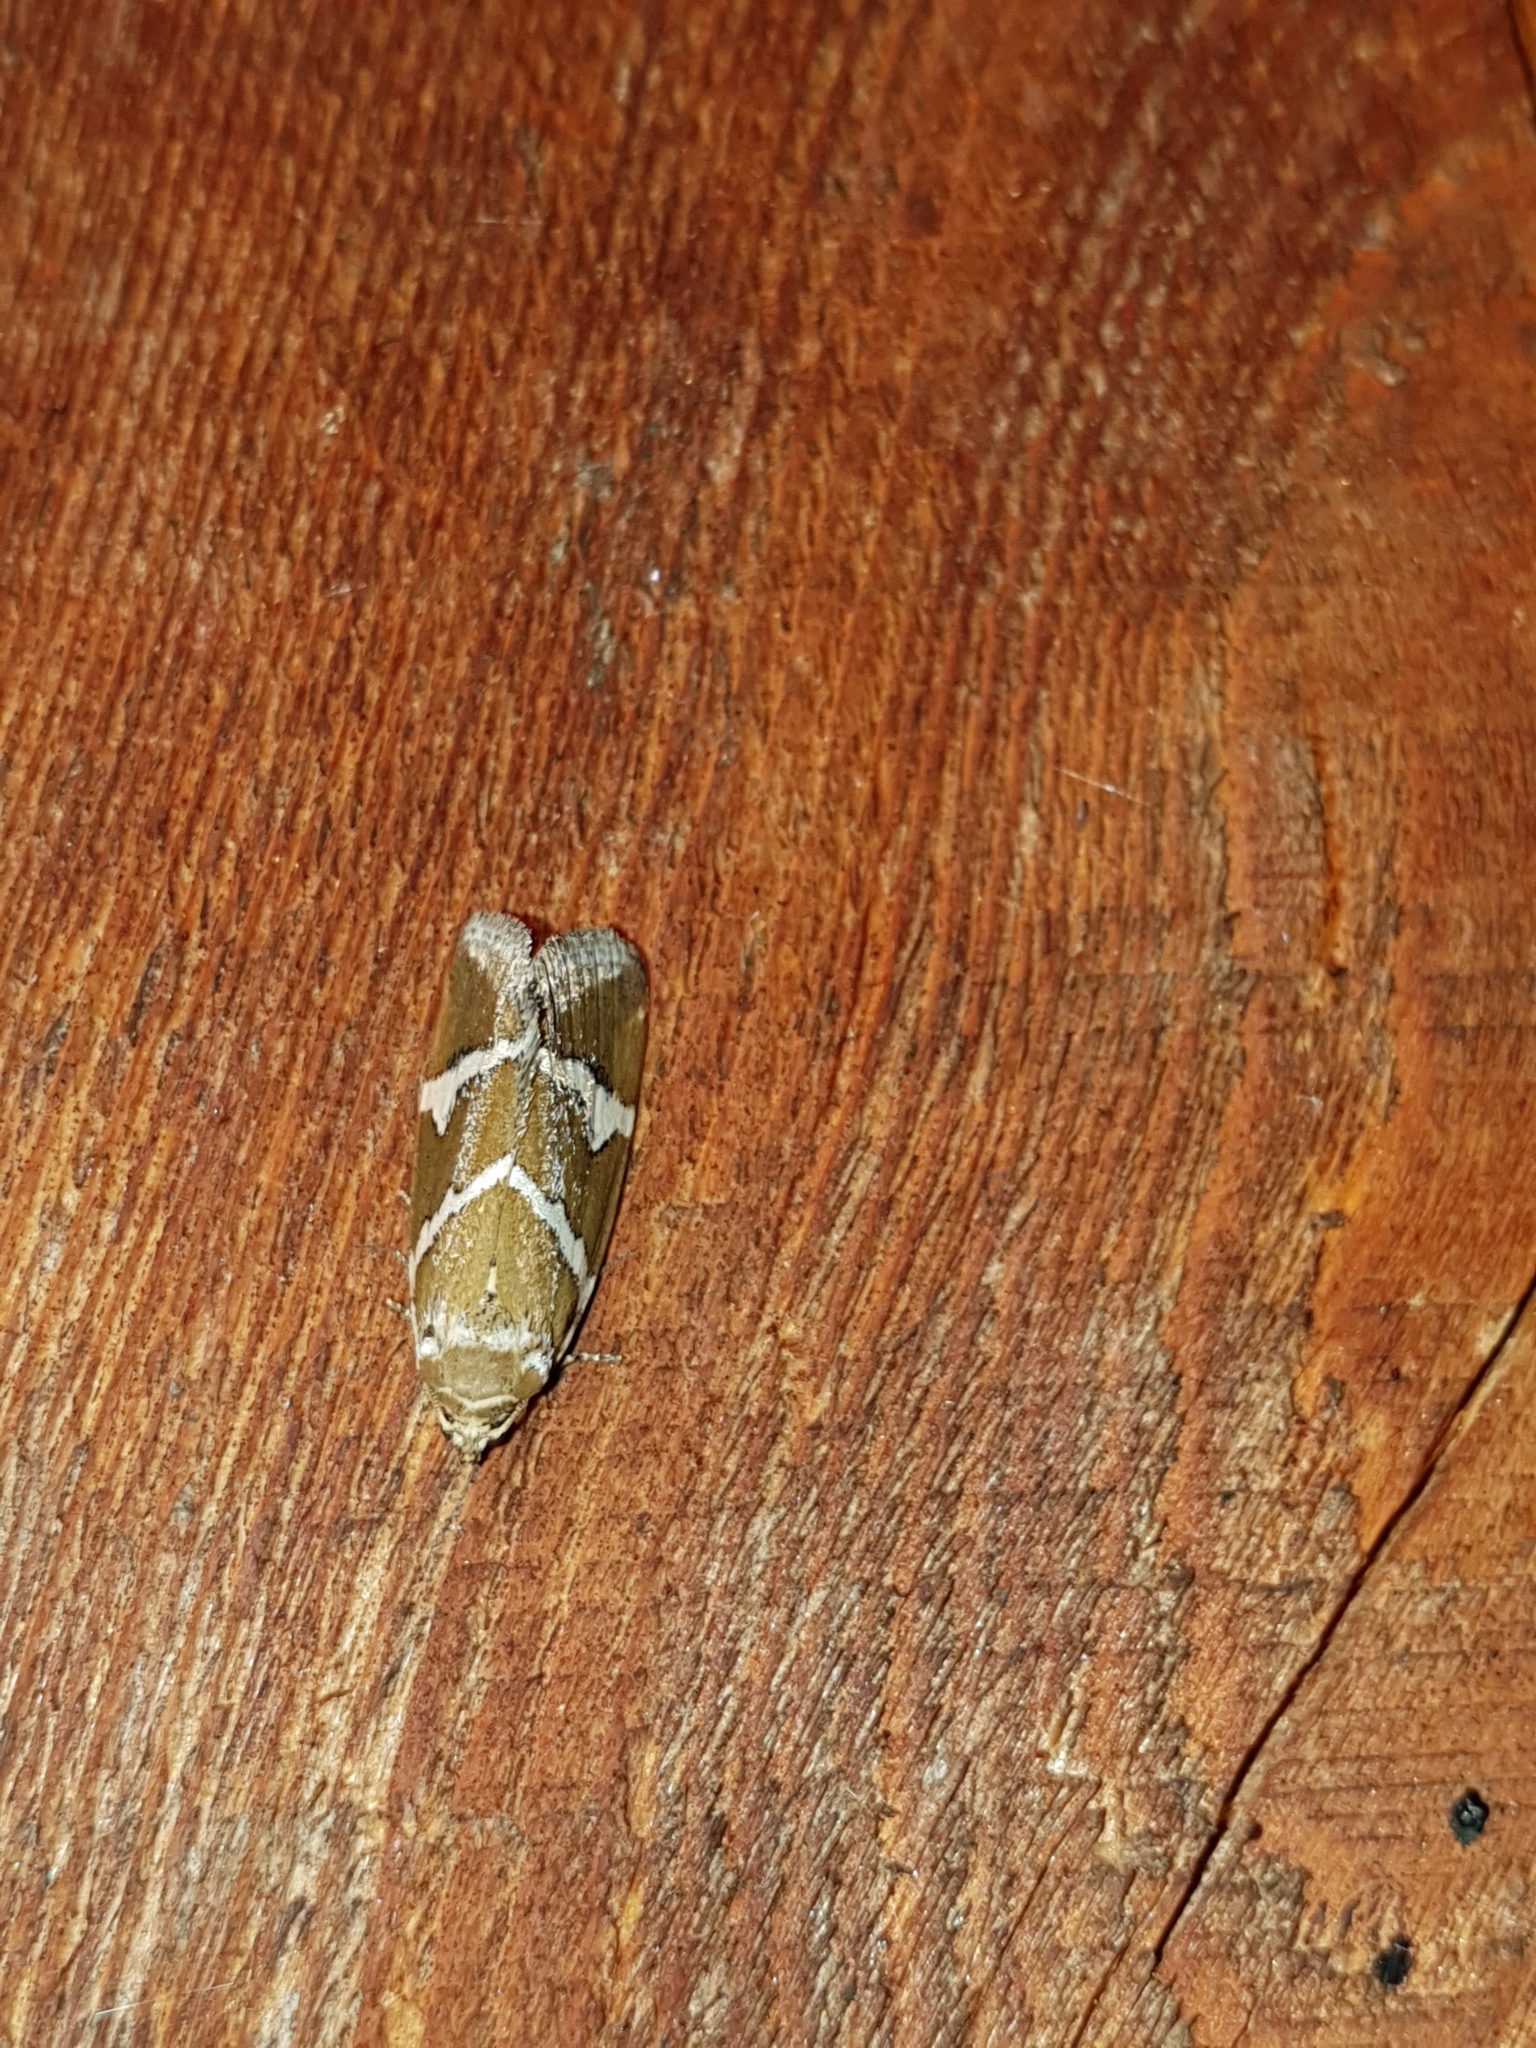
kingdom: Animalia
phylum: Arthropoda
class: Insecta
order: Lepidoptera
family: Noctuidae
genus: Deltote
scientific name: Deltote bankiana
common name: Silver barred
